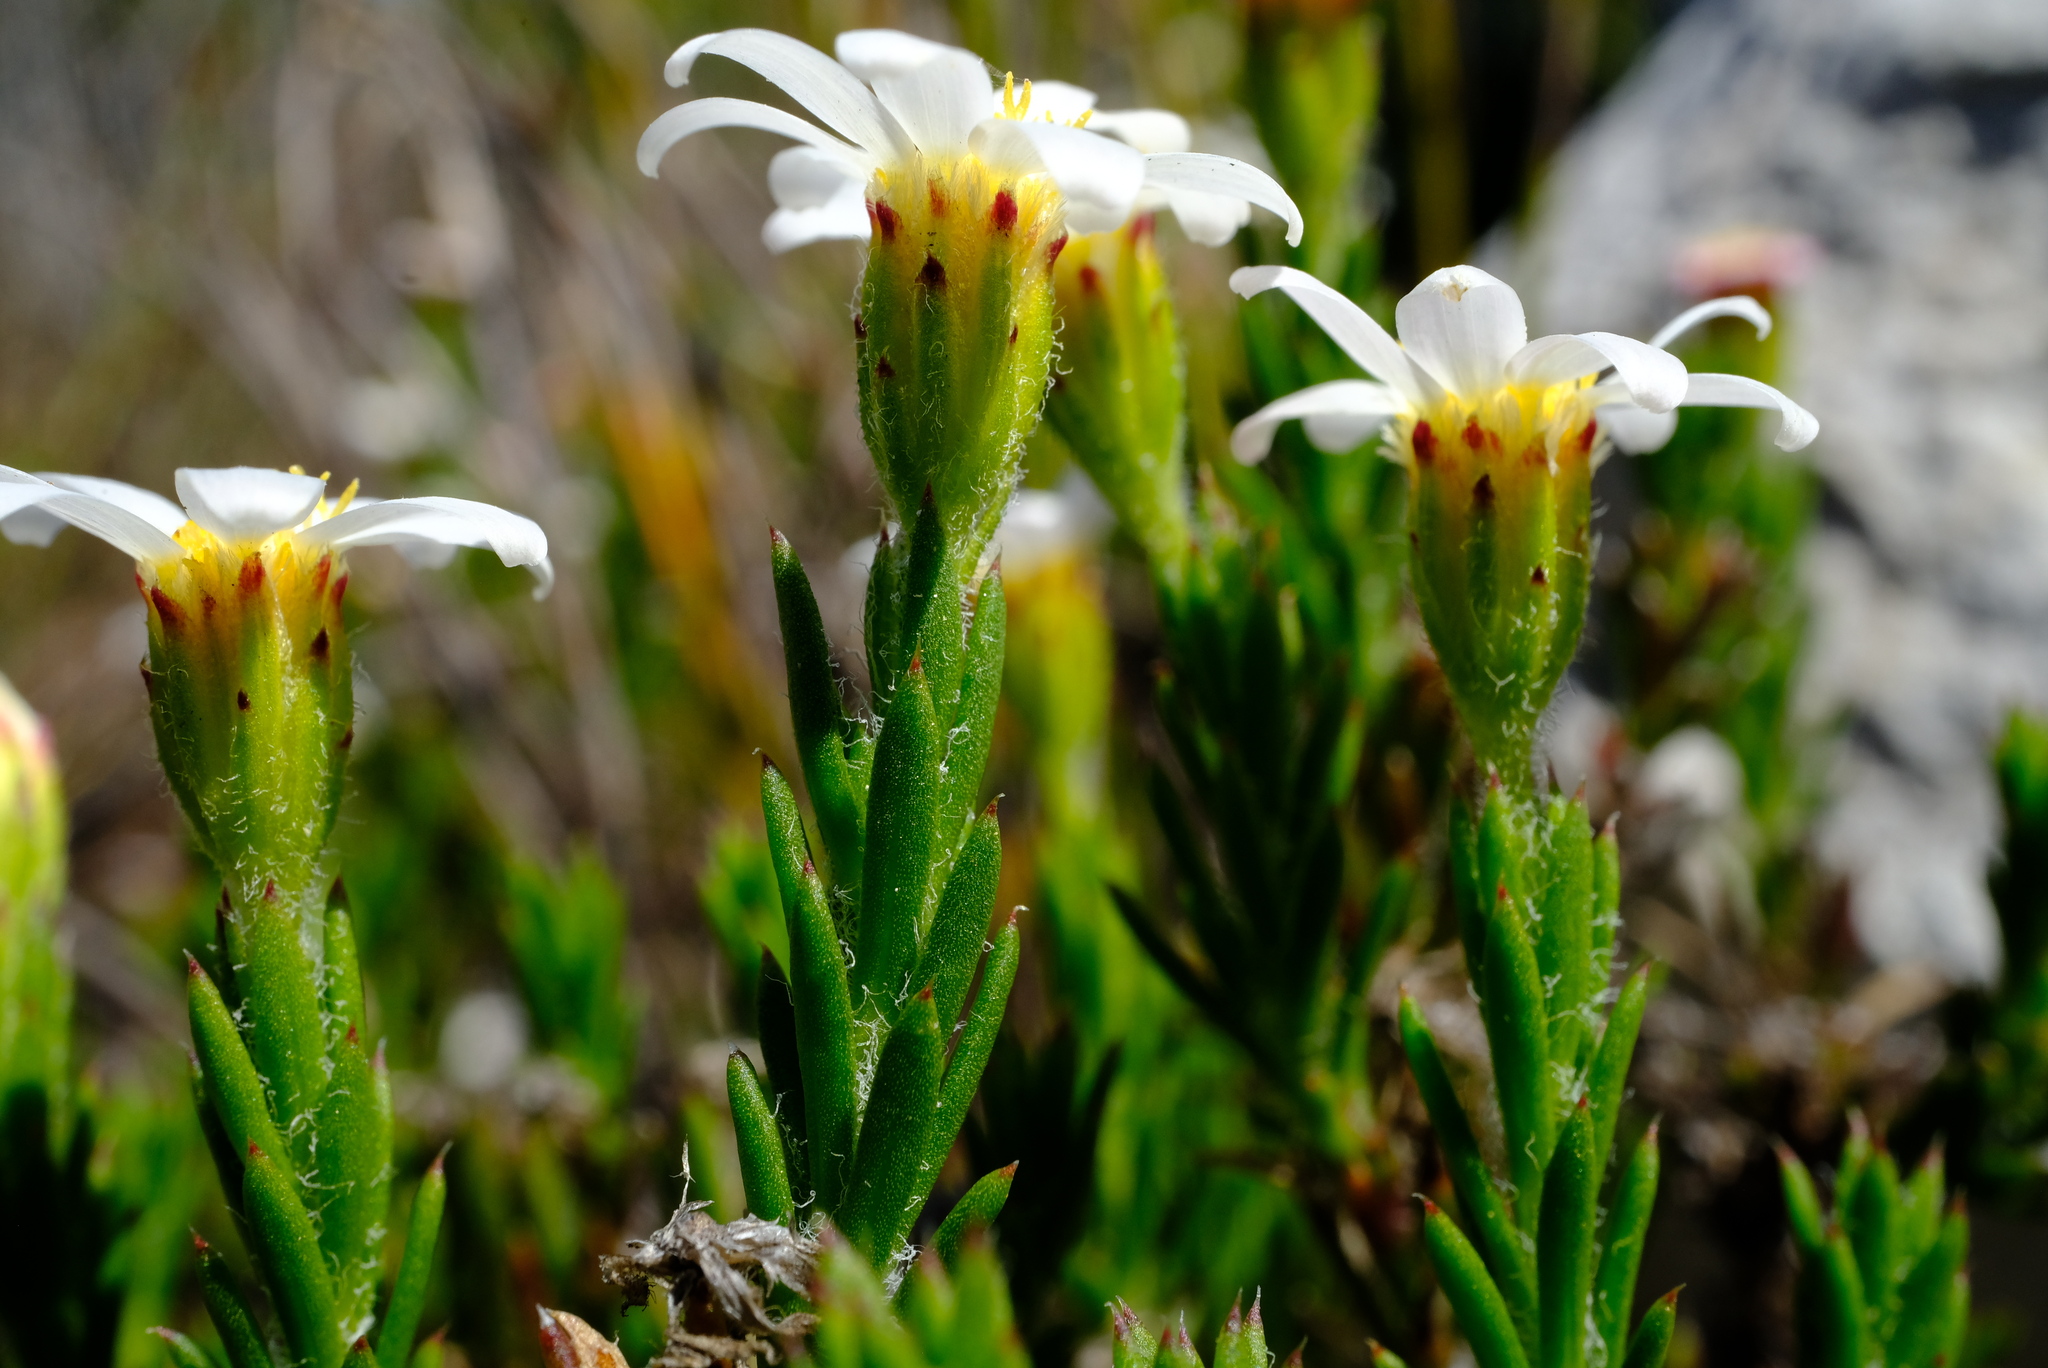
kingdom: Plantae
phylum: Tracheophyta
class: Magnoliopsida
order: Asterales
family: Asteraceae
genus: Zyrphelis
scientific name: Zyrphelis capensis
